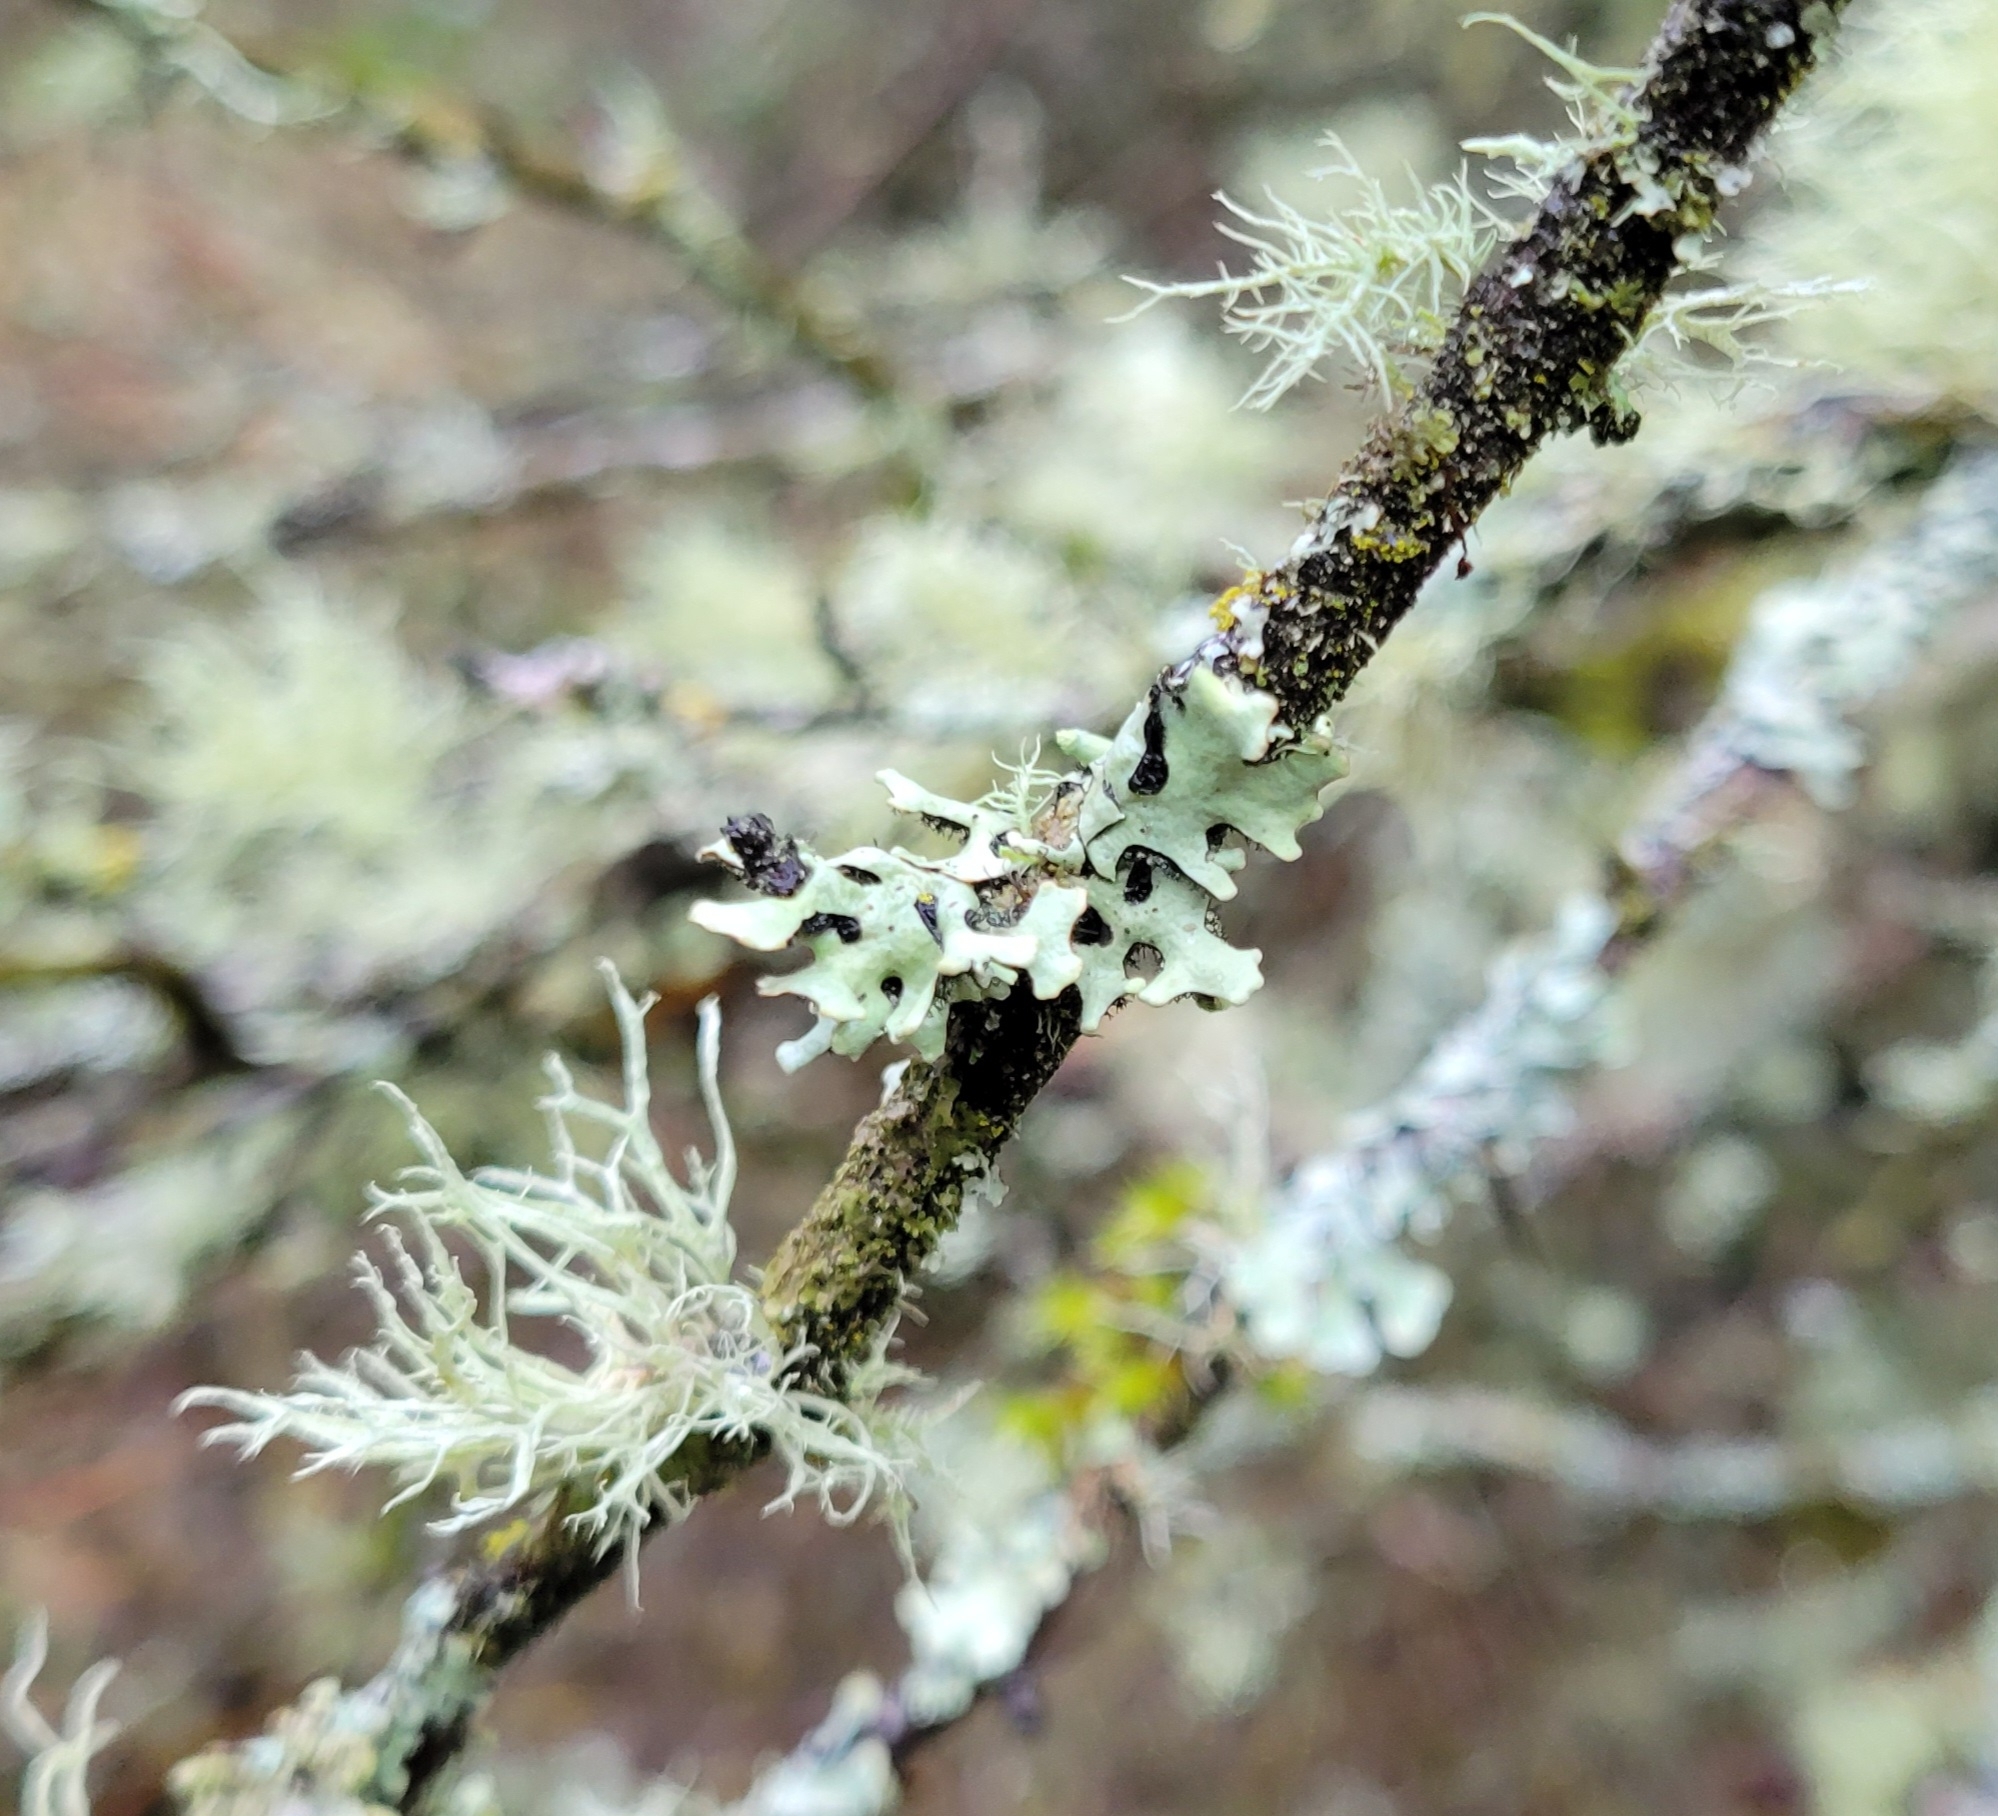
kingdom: Fungi
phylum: Ascomycota
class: Lecanoromycetes
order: Lecanorales
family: Parmeliaceae
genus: Hypotrachyna
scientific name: Hypotrachyna sinuosa
